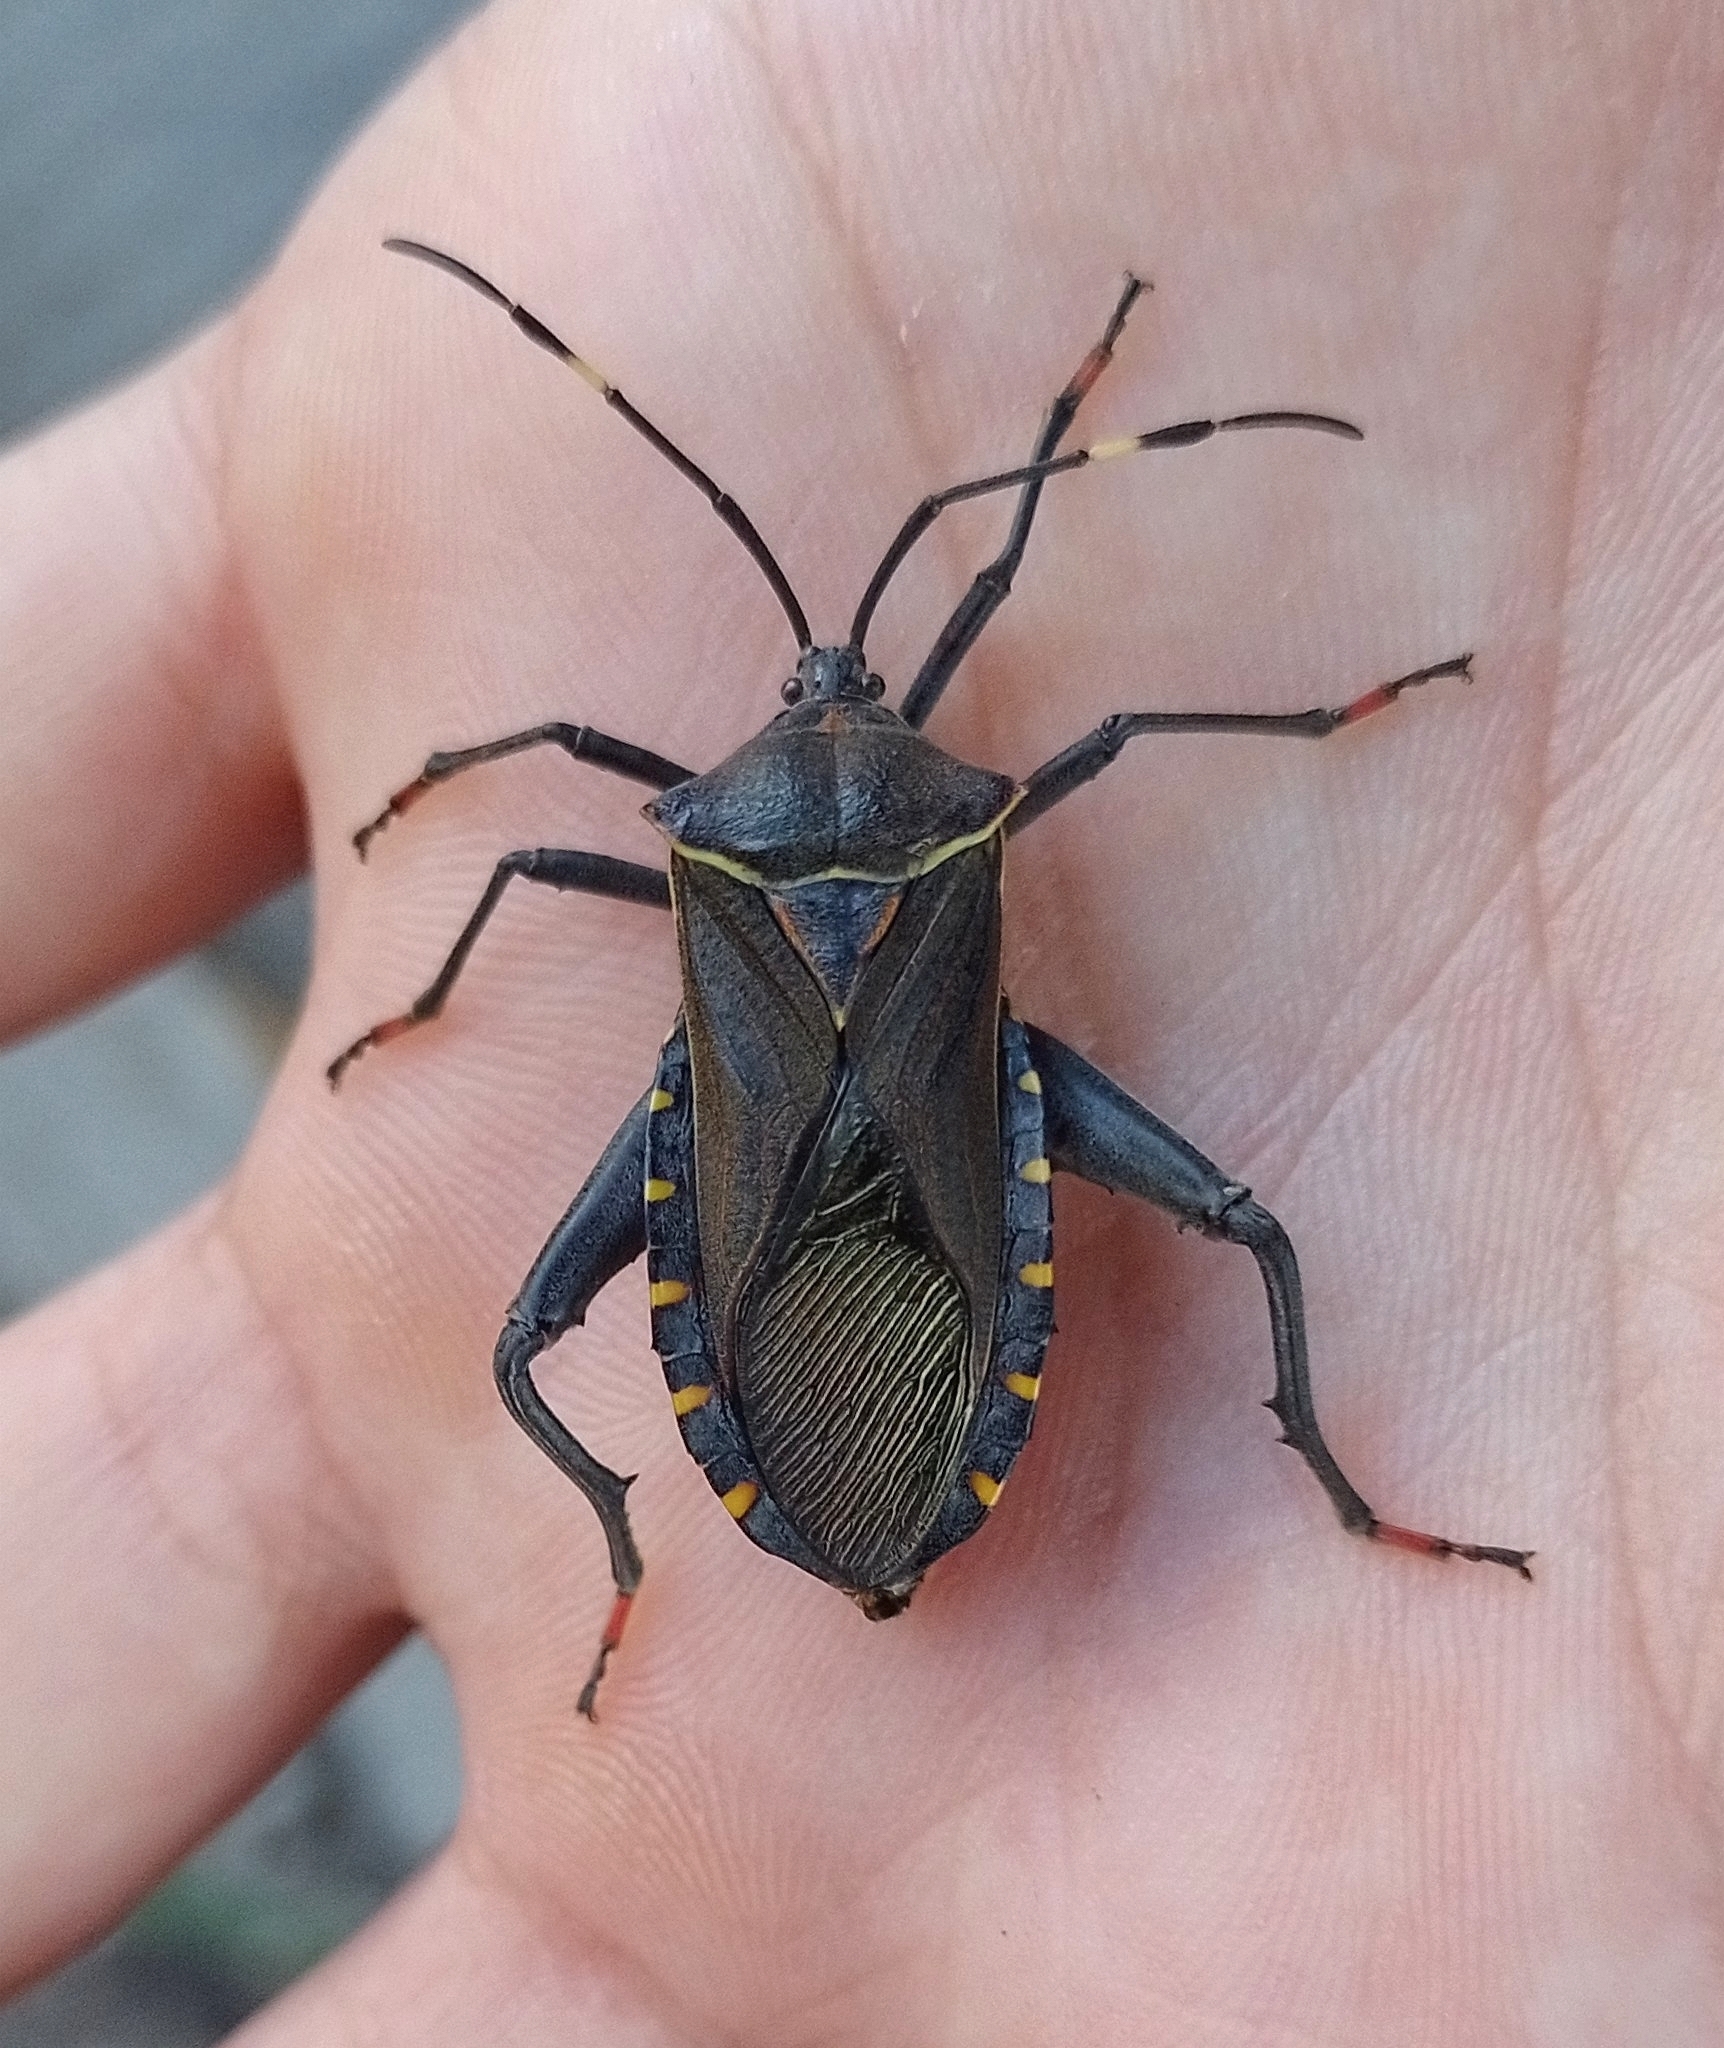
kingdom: Animalia
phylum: Arthropoda
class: Insecta
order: Hemiptera
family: Coreidae
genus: Pachylis
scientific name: Pachylis argentinus
